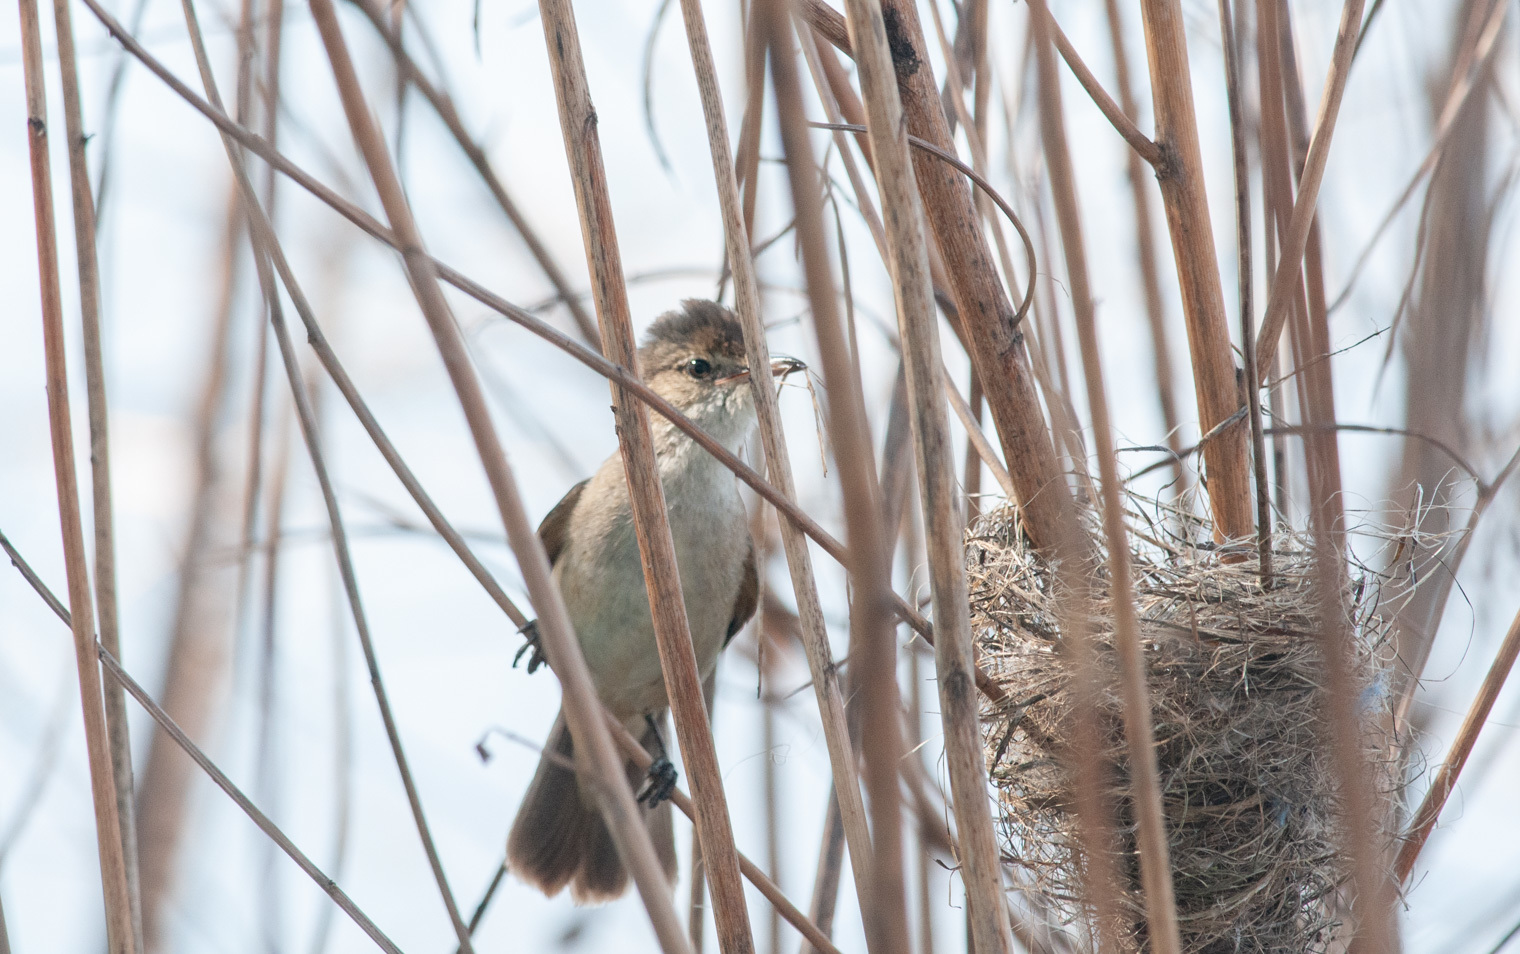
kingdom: Animalia
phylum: Chordata
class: Aves
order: Passeriformes
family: Acrocephalidae
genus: Acrocephalus
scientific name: Acrocephalus australis
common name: Australian reed warbler
